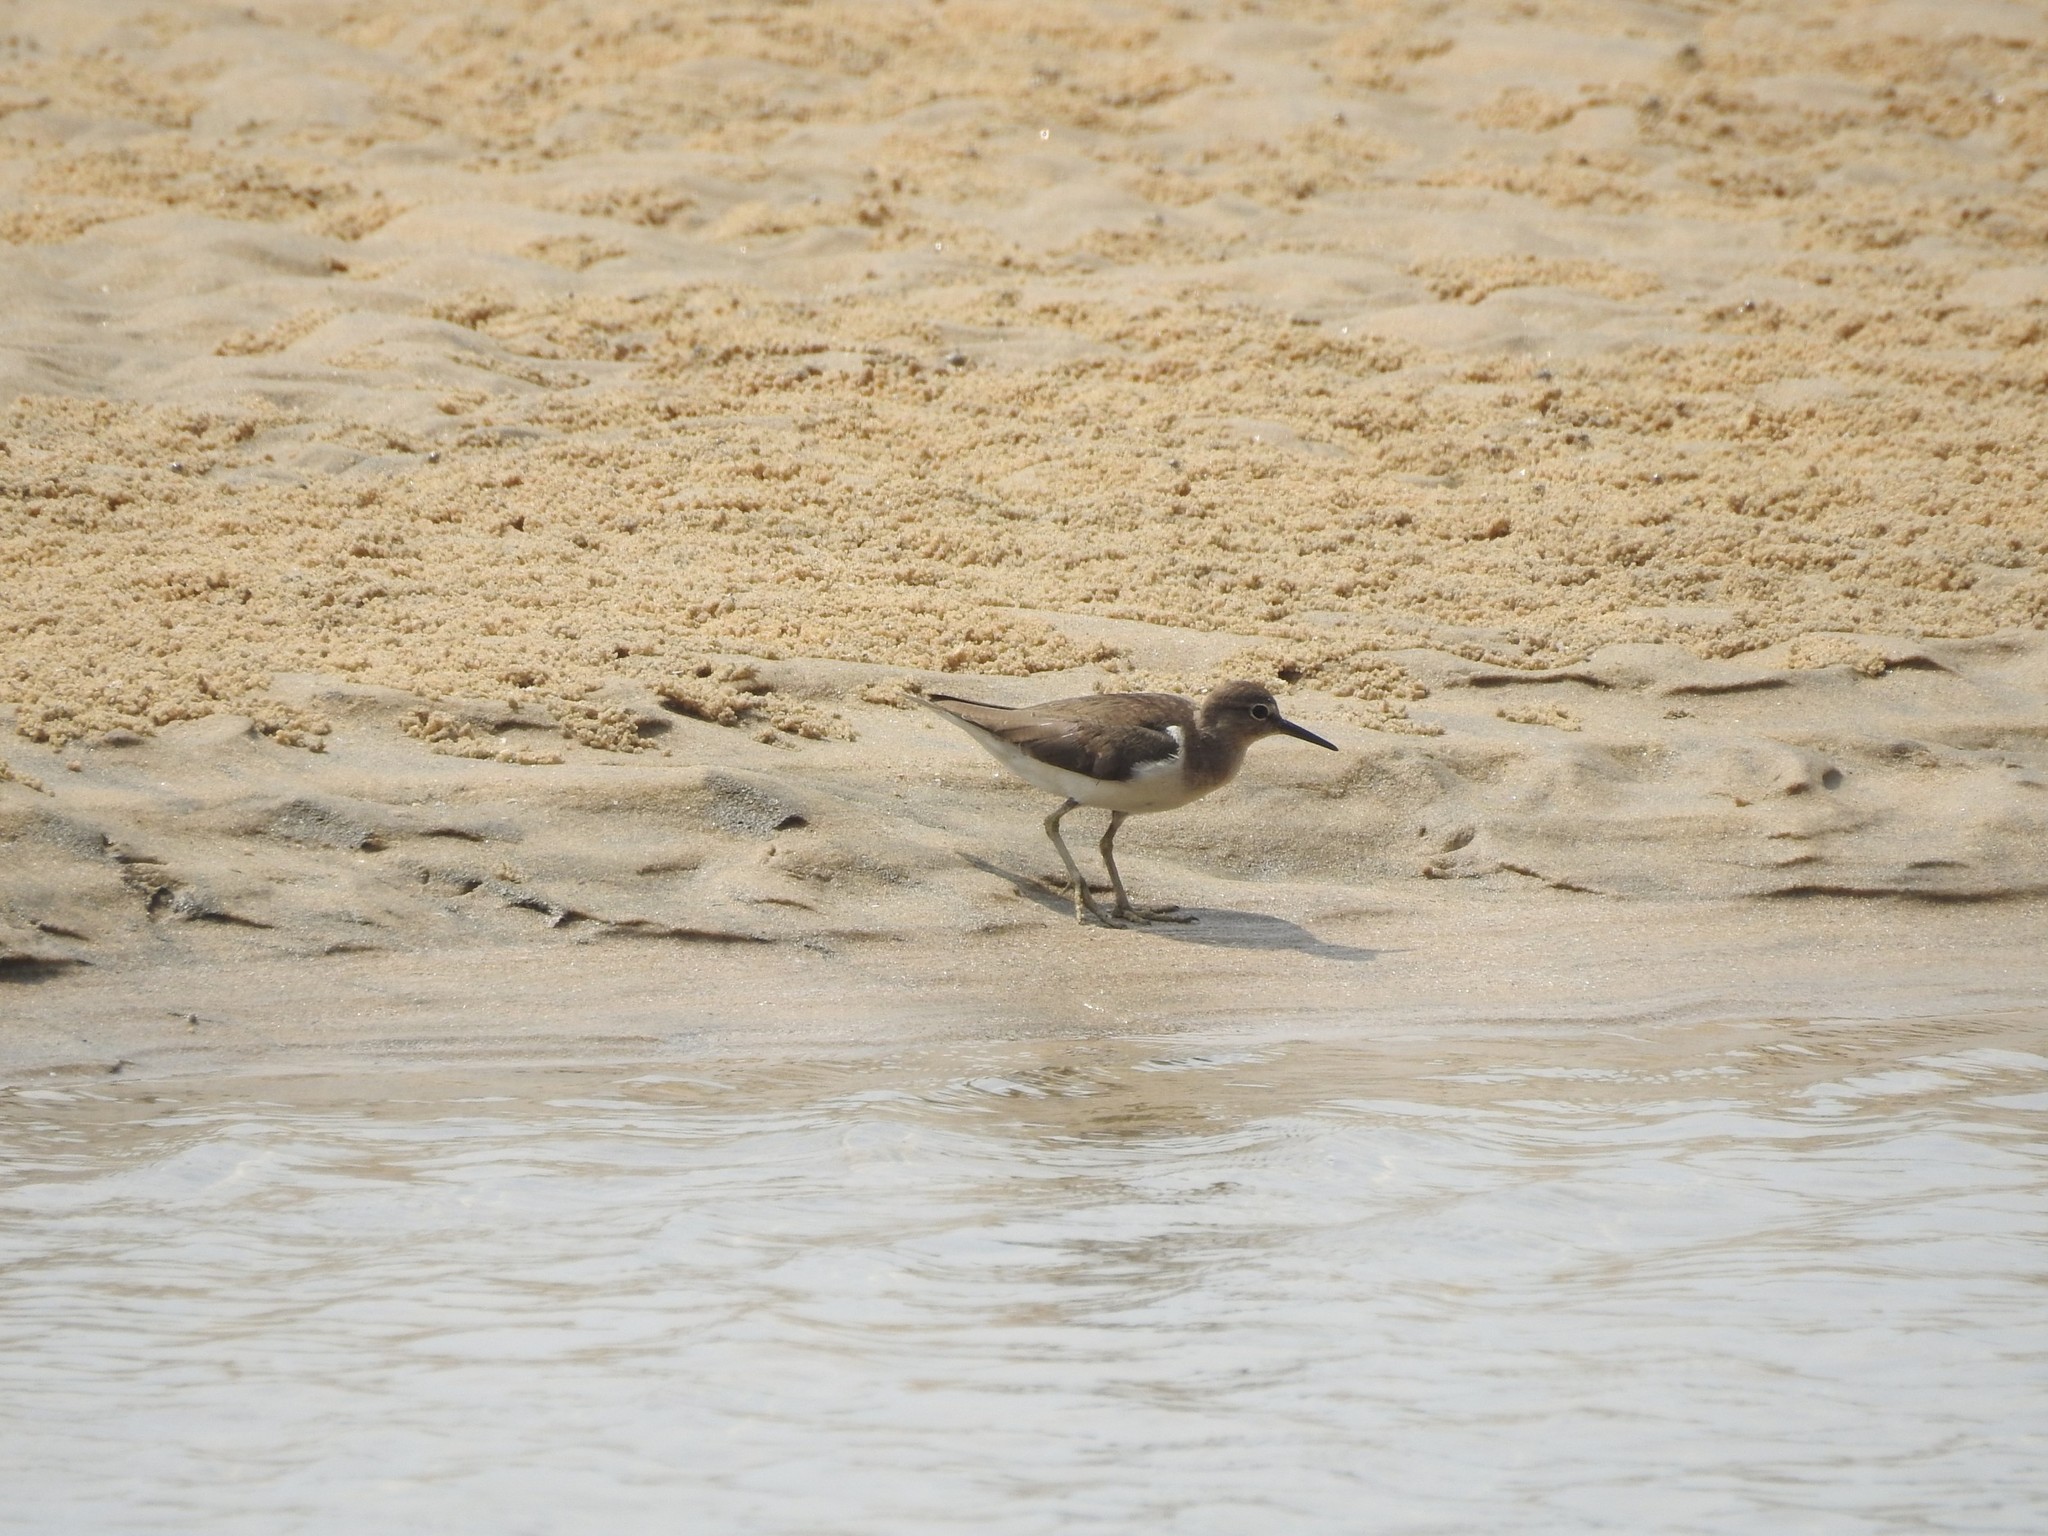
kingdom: Animalia
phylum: Chordata
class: Aves
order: Charadriiformes
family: Scolopacidae
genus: Actitis
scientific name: Actitis hypoleucos
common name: Common sandpiper
